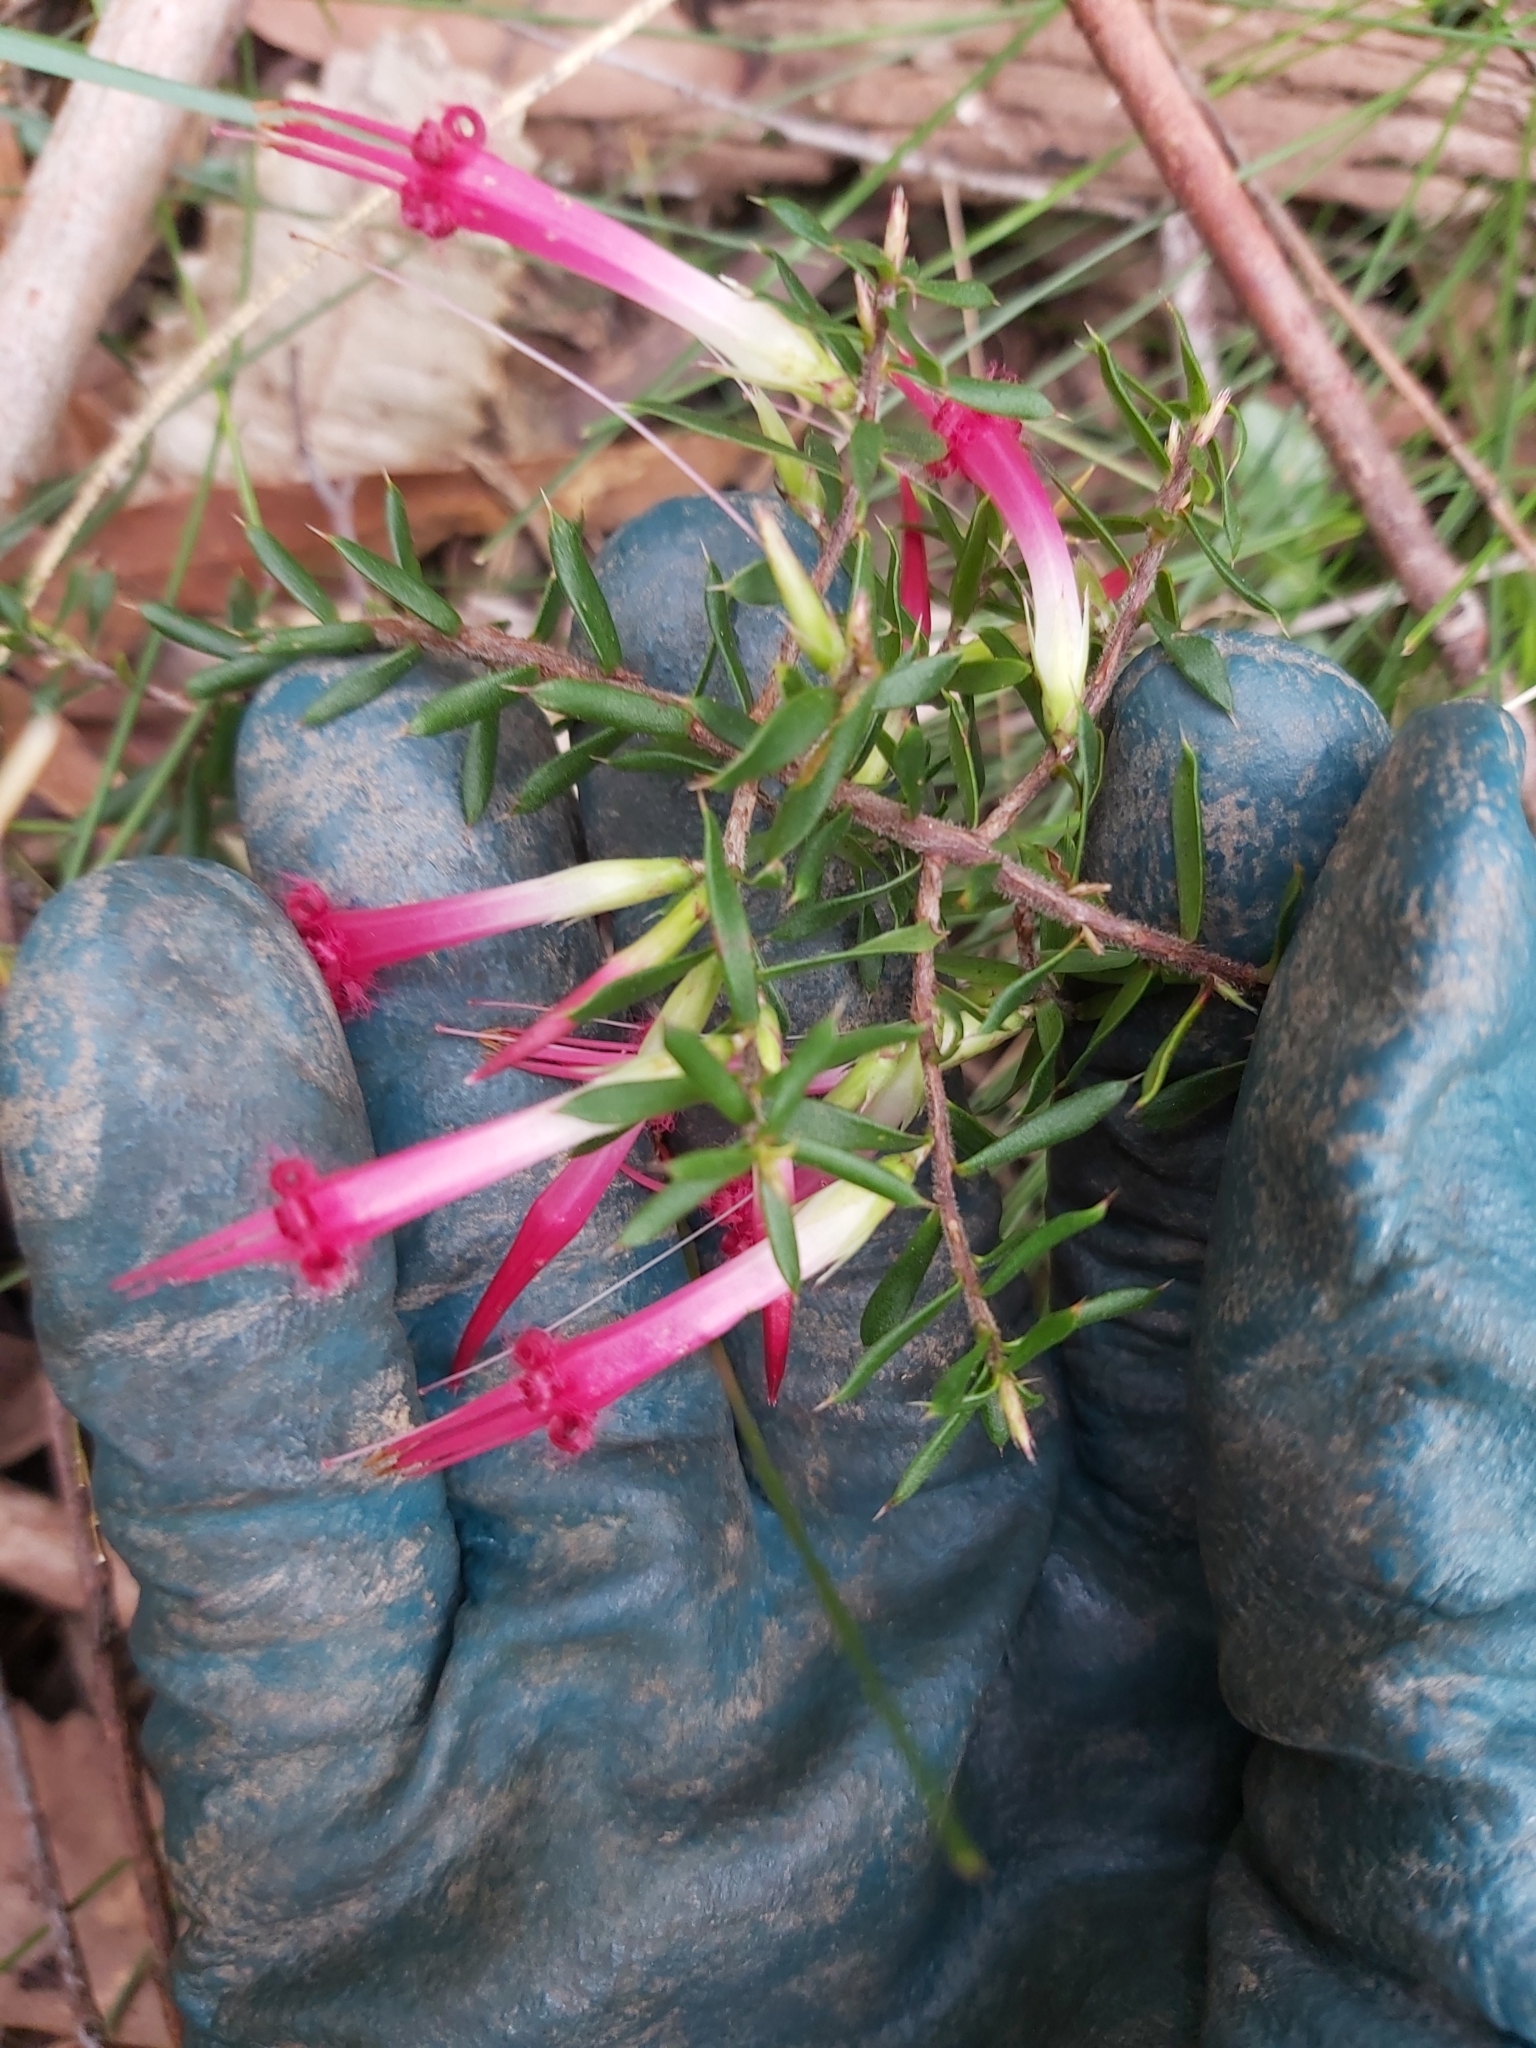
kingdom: Plantae
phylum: Tracheophyta
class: Magnoliopsida
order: Ericales
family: Ericaceae
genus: Styphelia
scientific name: Styphelia tubiflora
